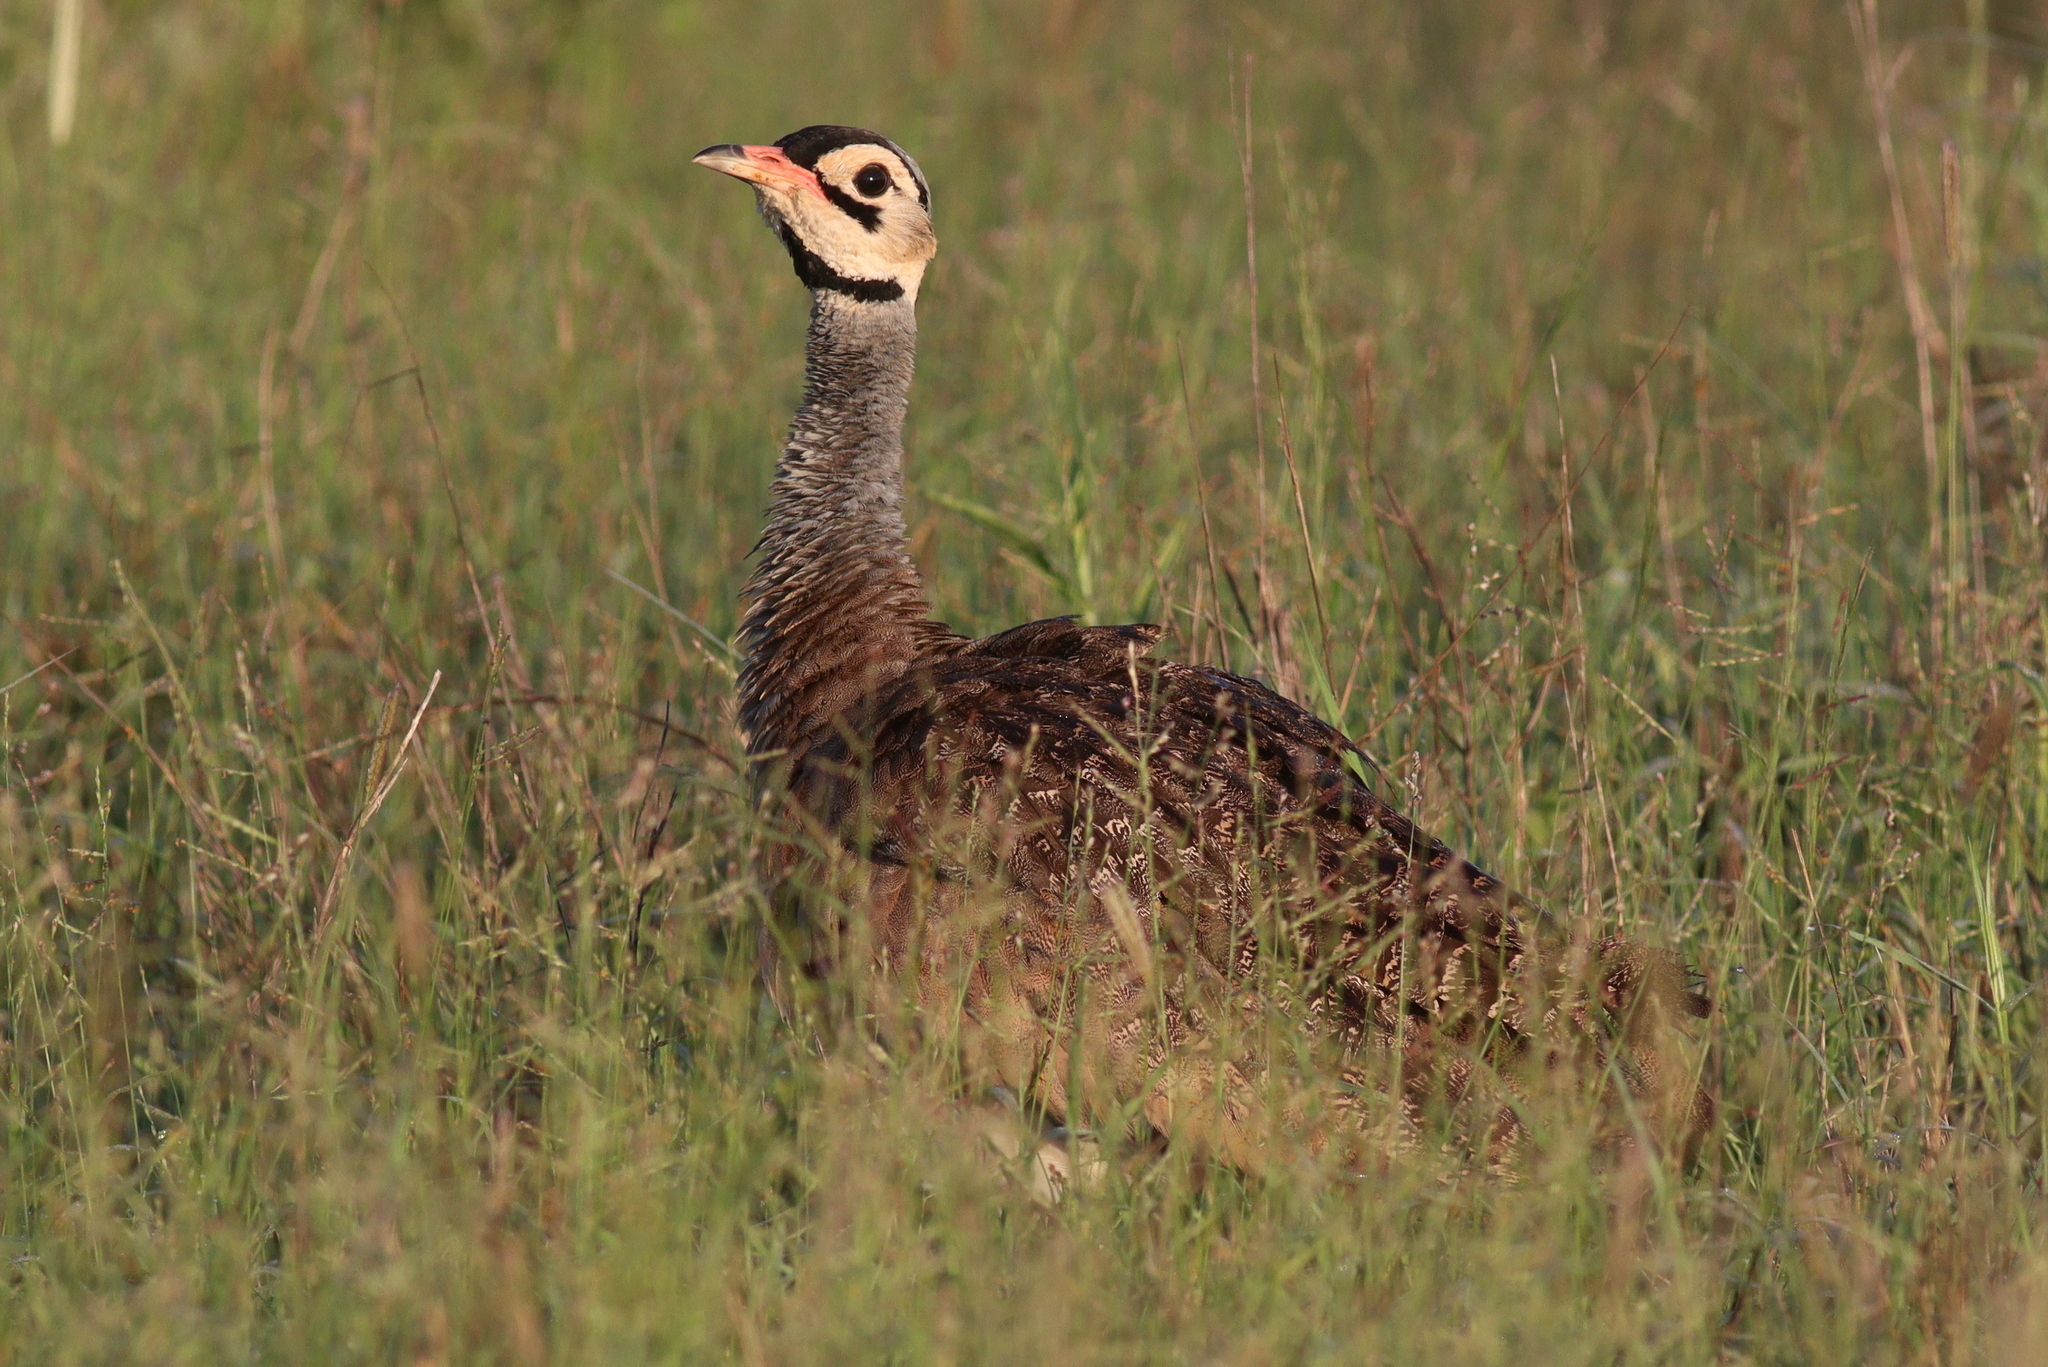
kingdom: Animalia
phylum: Chordata
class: Aves
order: Otidiformes
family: Otididae
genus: Eupodotis
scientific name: Eupodotis senegalensis
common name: White-bellied bustard
